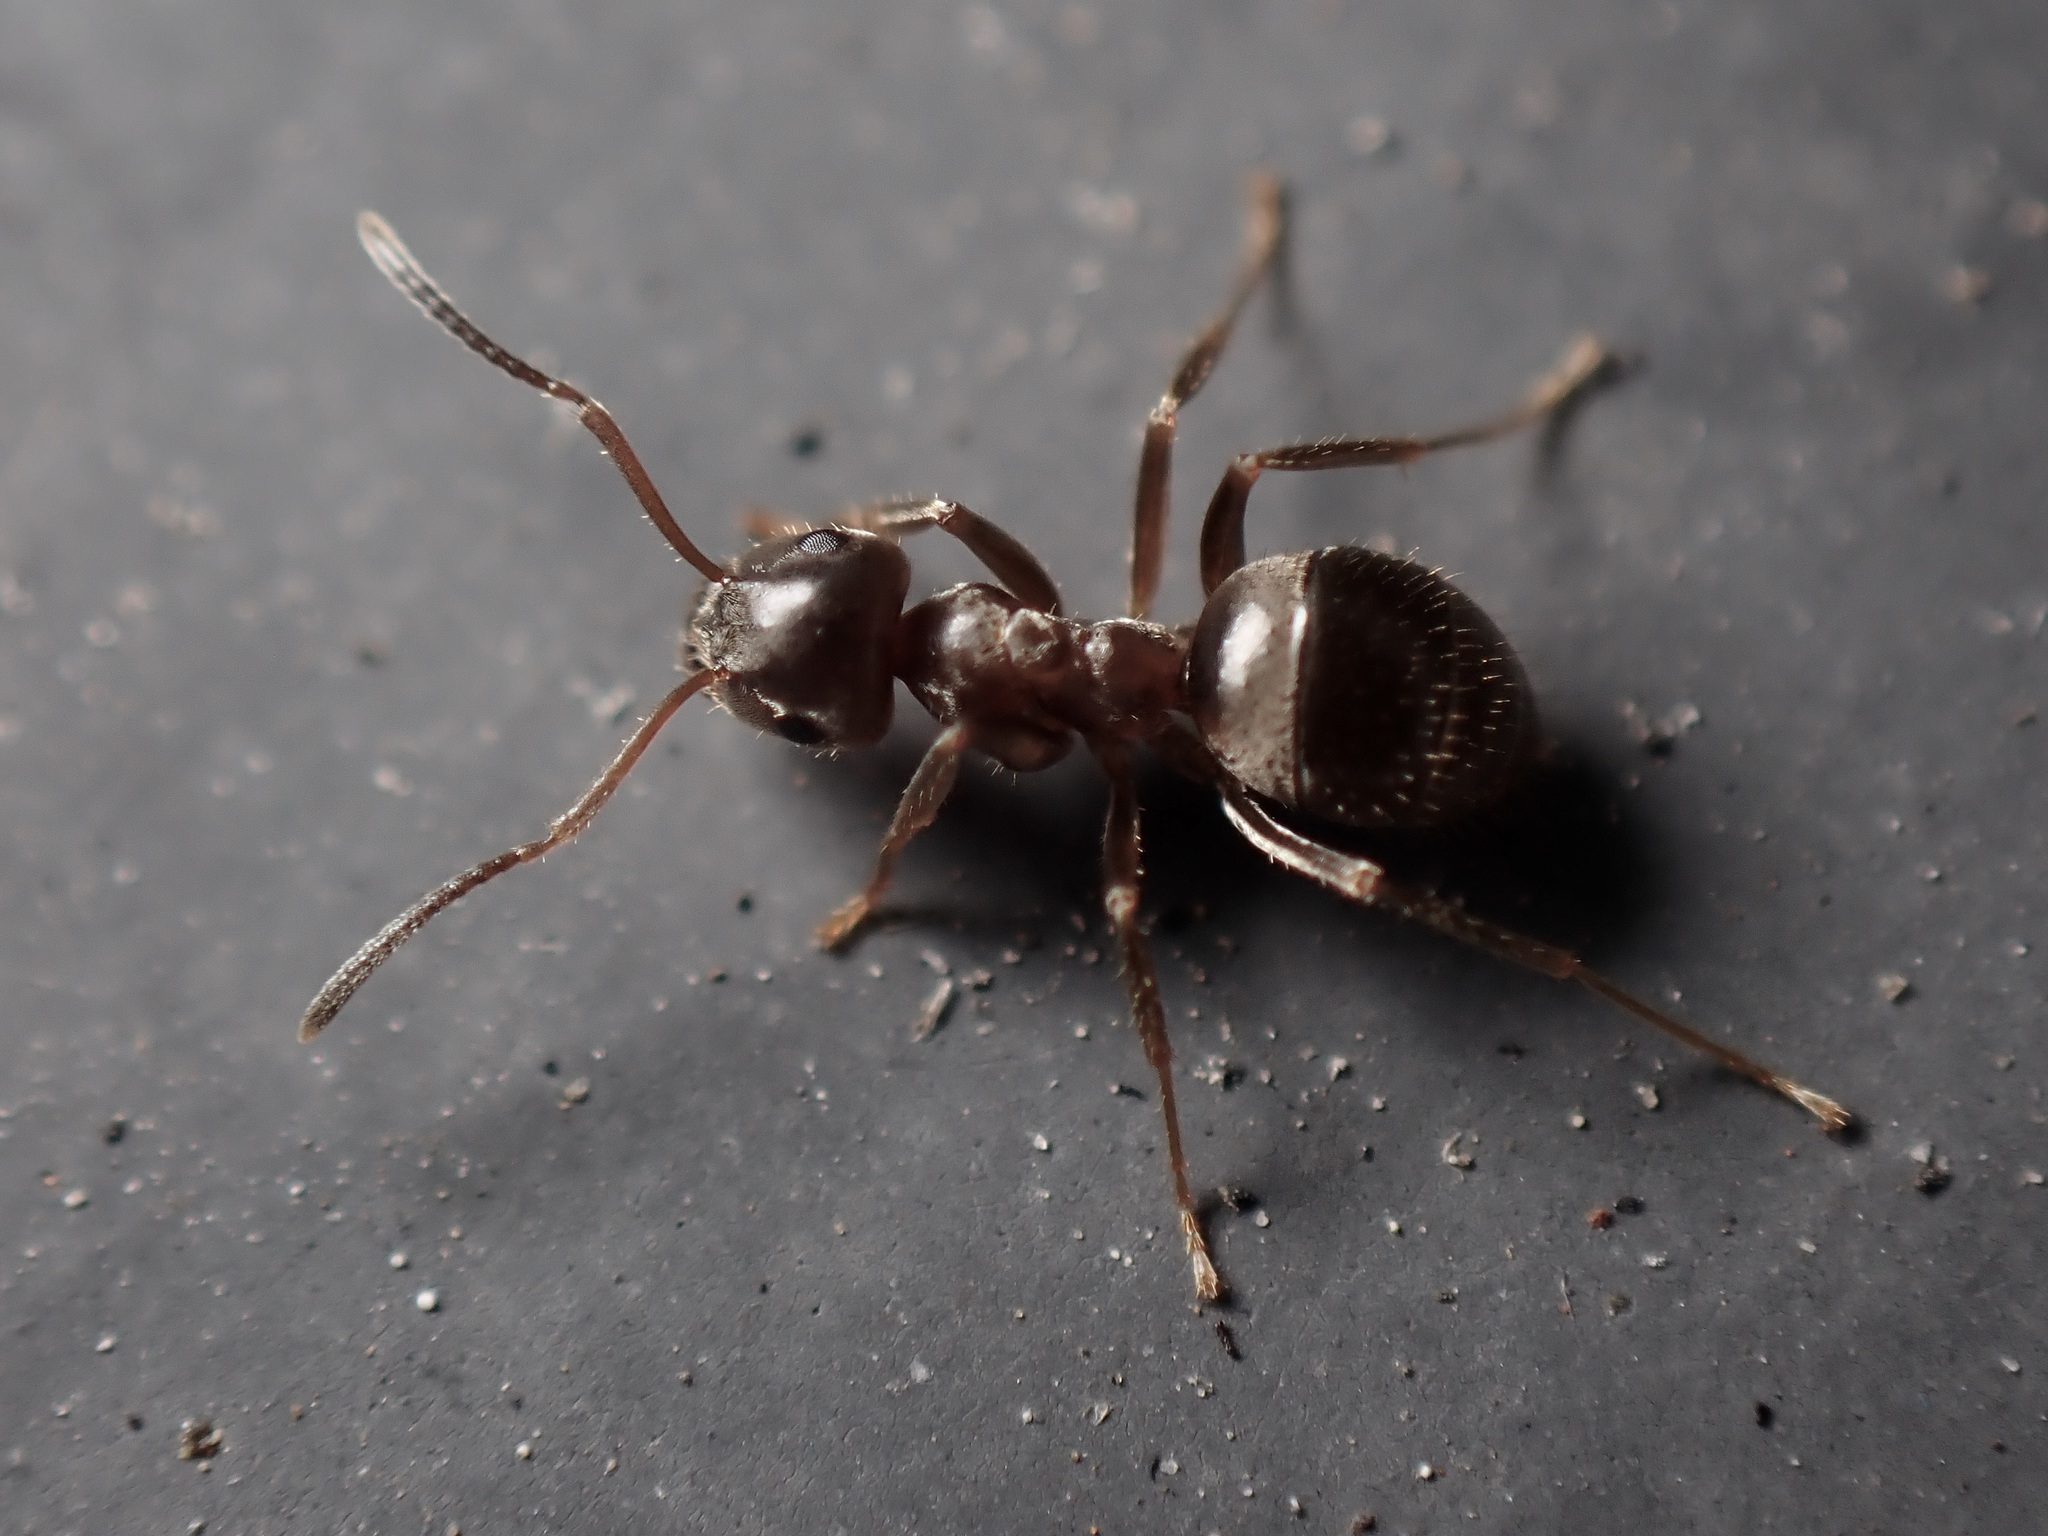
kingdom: Animalia
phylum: Arthropoda
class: Insecta
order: Hymenoptera
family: Formicidae
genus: Lasius
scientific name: Lasius niger
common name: Small black ant
